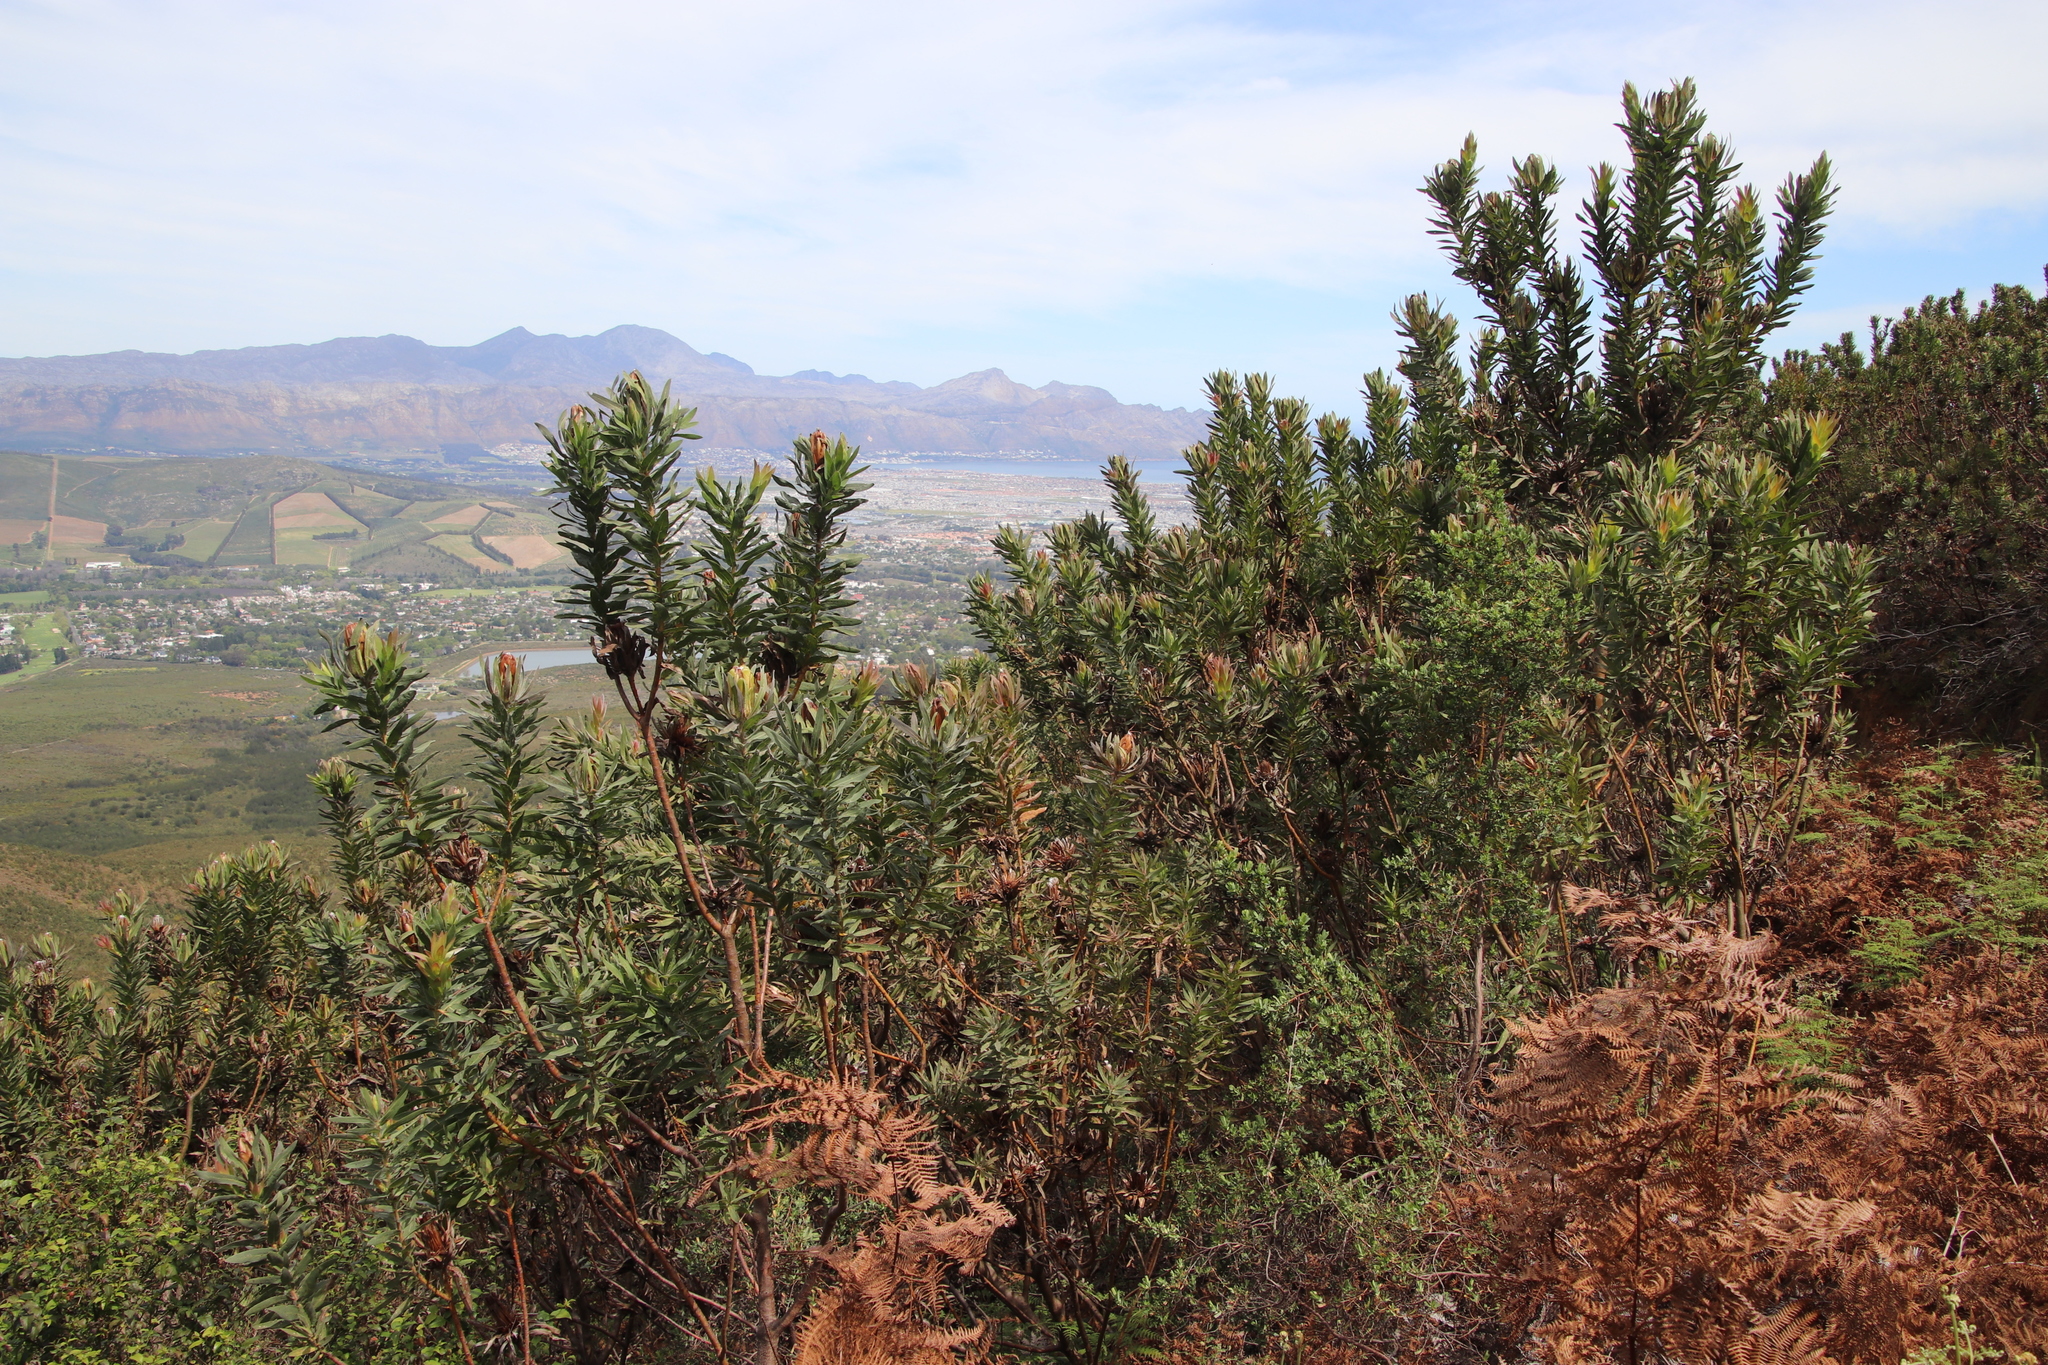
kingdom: Plantae
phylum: Tracheophyta
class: Magnoliopsida
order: Proteales
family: Proteaceae
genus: Protea
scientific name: Protea coronata
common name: Green sugarbush
